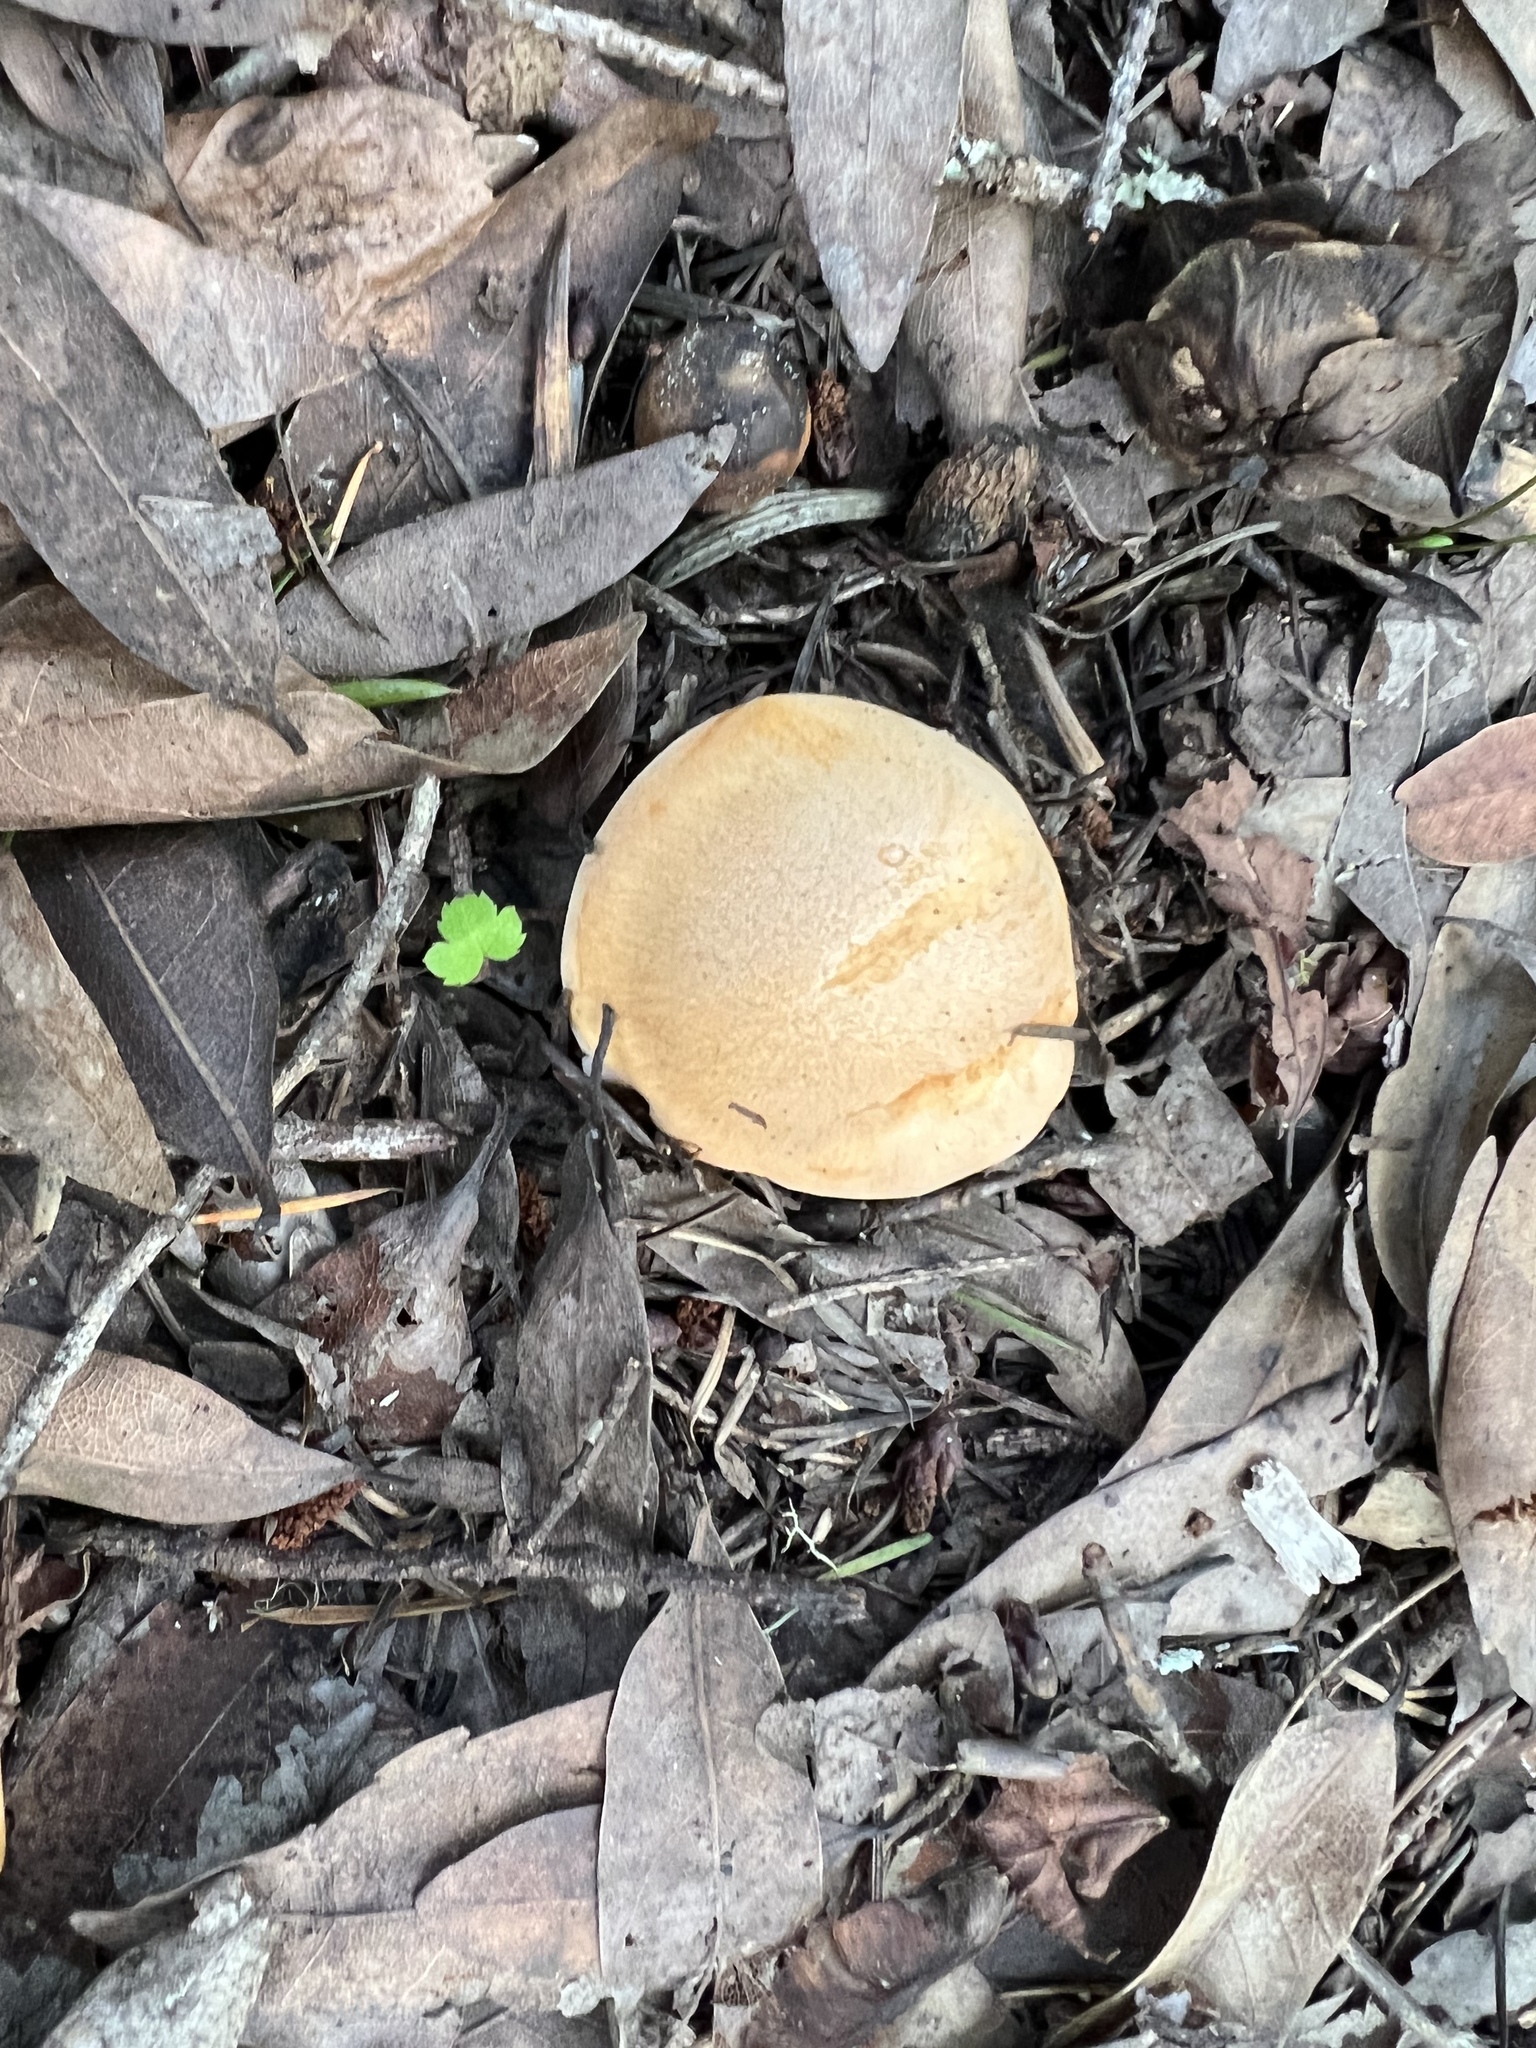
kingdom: Fungi
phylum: Basidiomycota
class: Agaricomycetes
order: Agaricales
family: Hygrophoraceae
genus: Cuphophyllus
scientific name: Cuphophyllus pratensis
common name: Meadow waxcap
